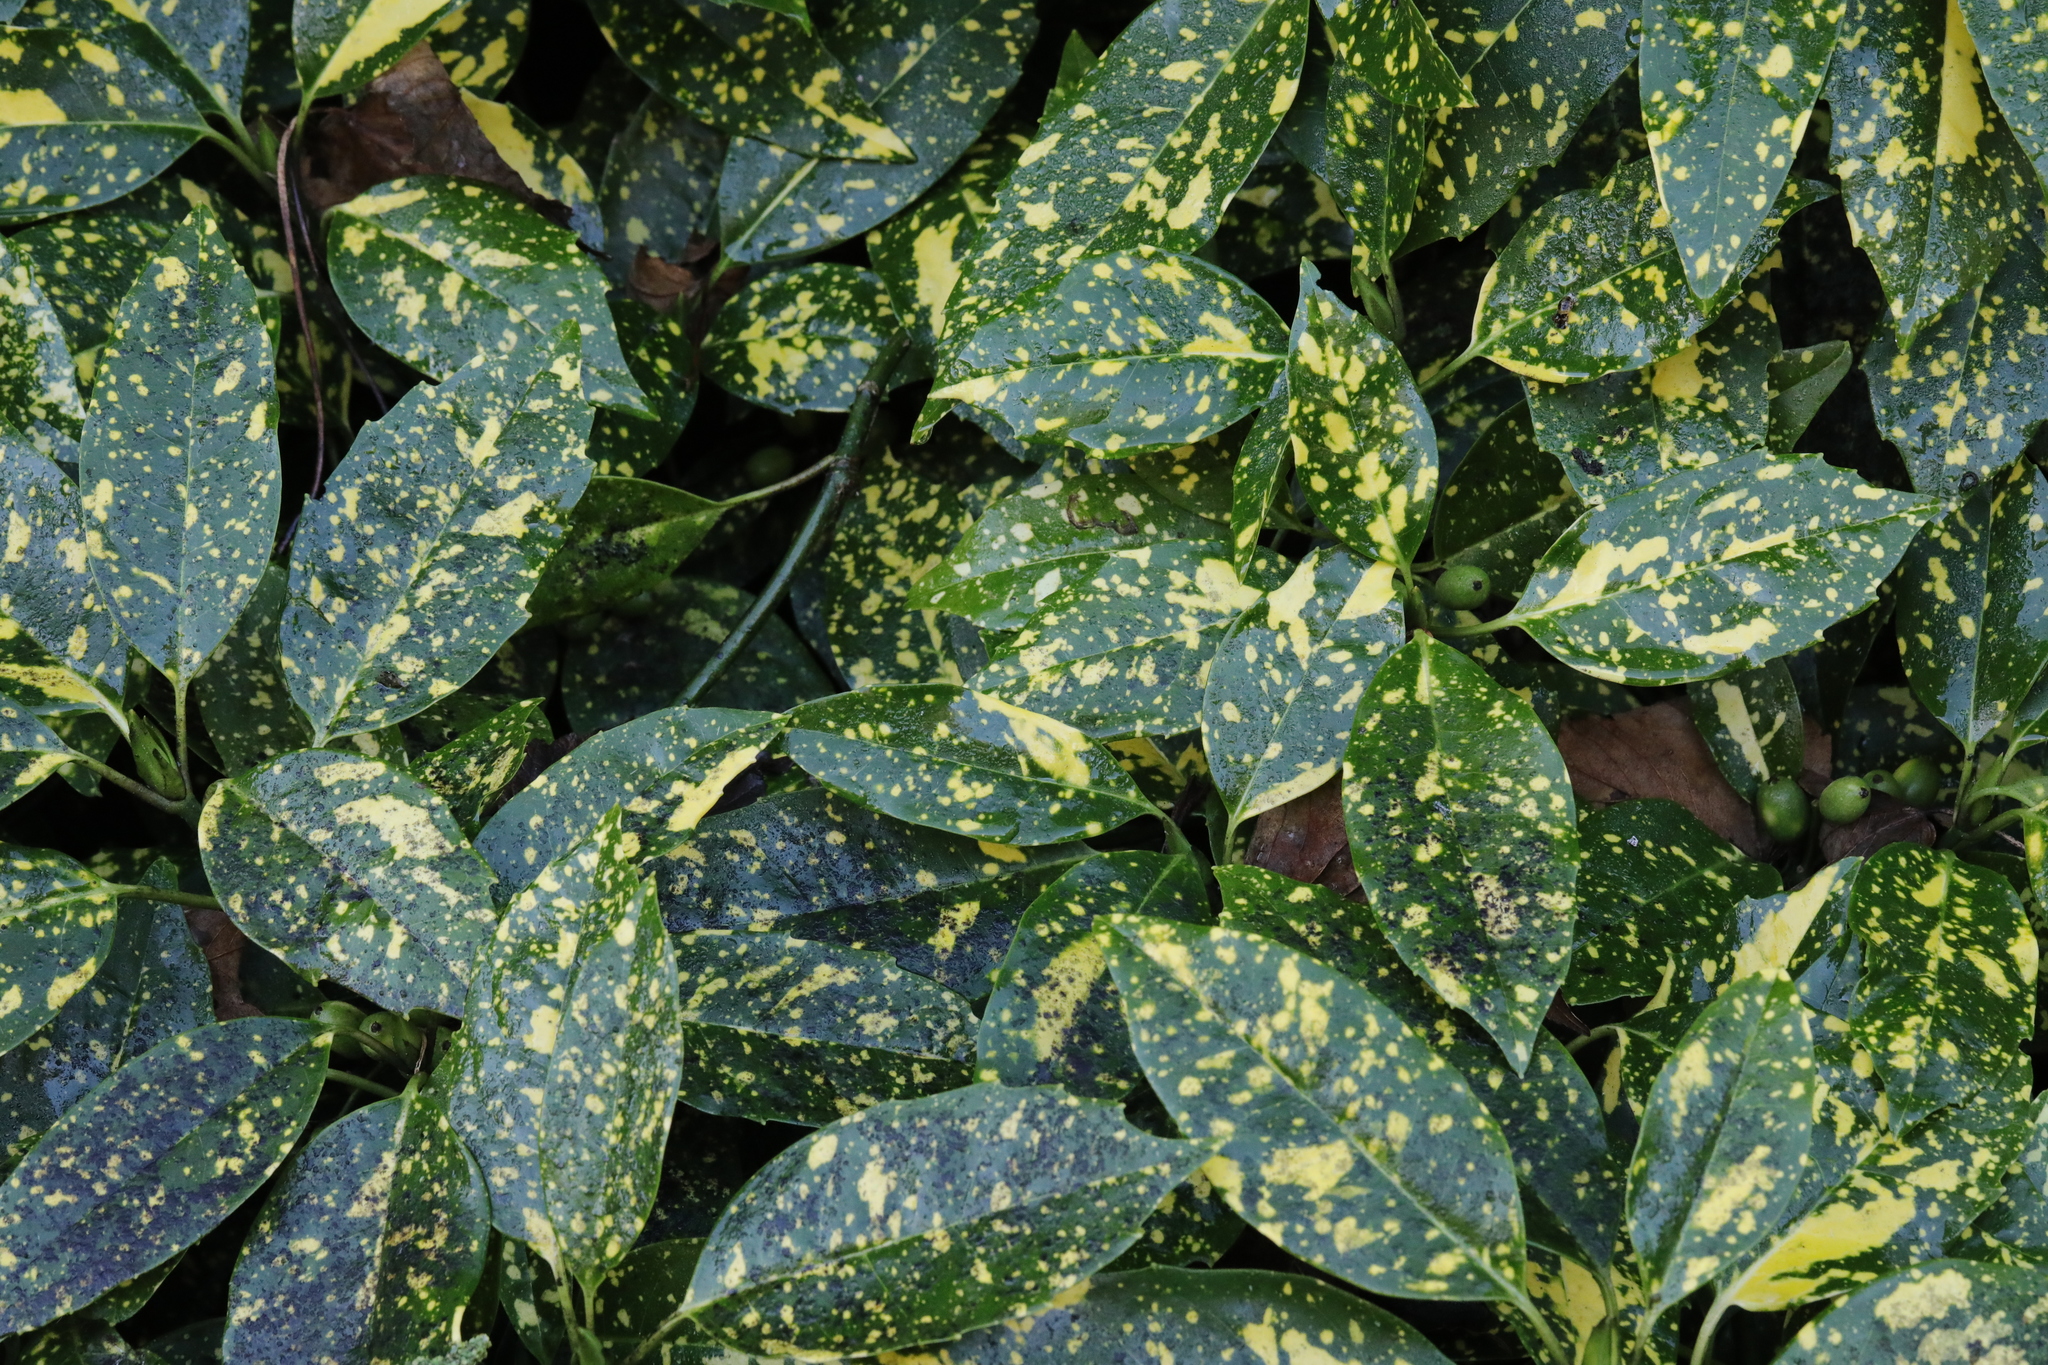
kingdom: Plantae
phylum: Tracheophyta
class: Magnoliopsida
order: Garryales
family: Garryaceae
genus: Aucuba
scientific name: Aucuba japonica
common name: Spotted-laurel
